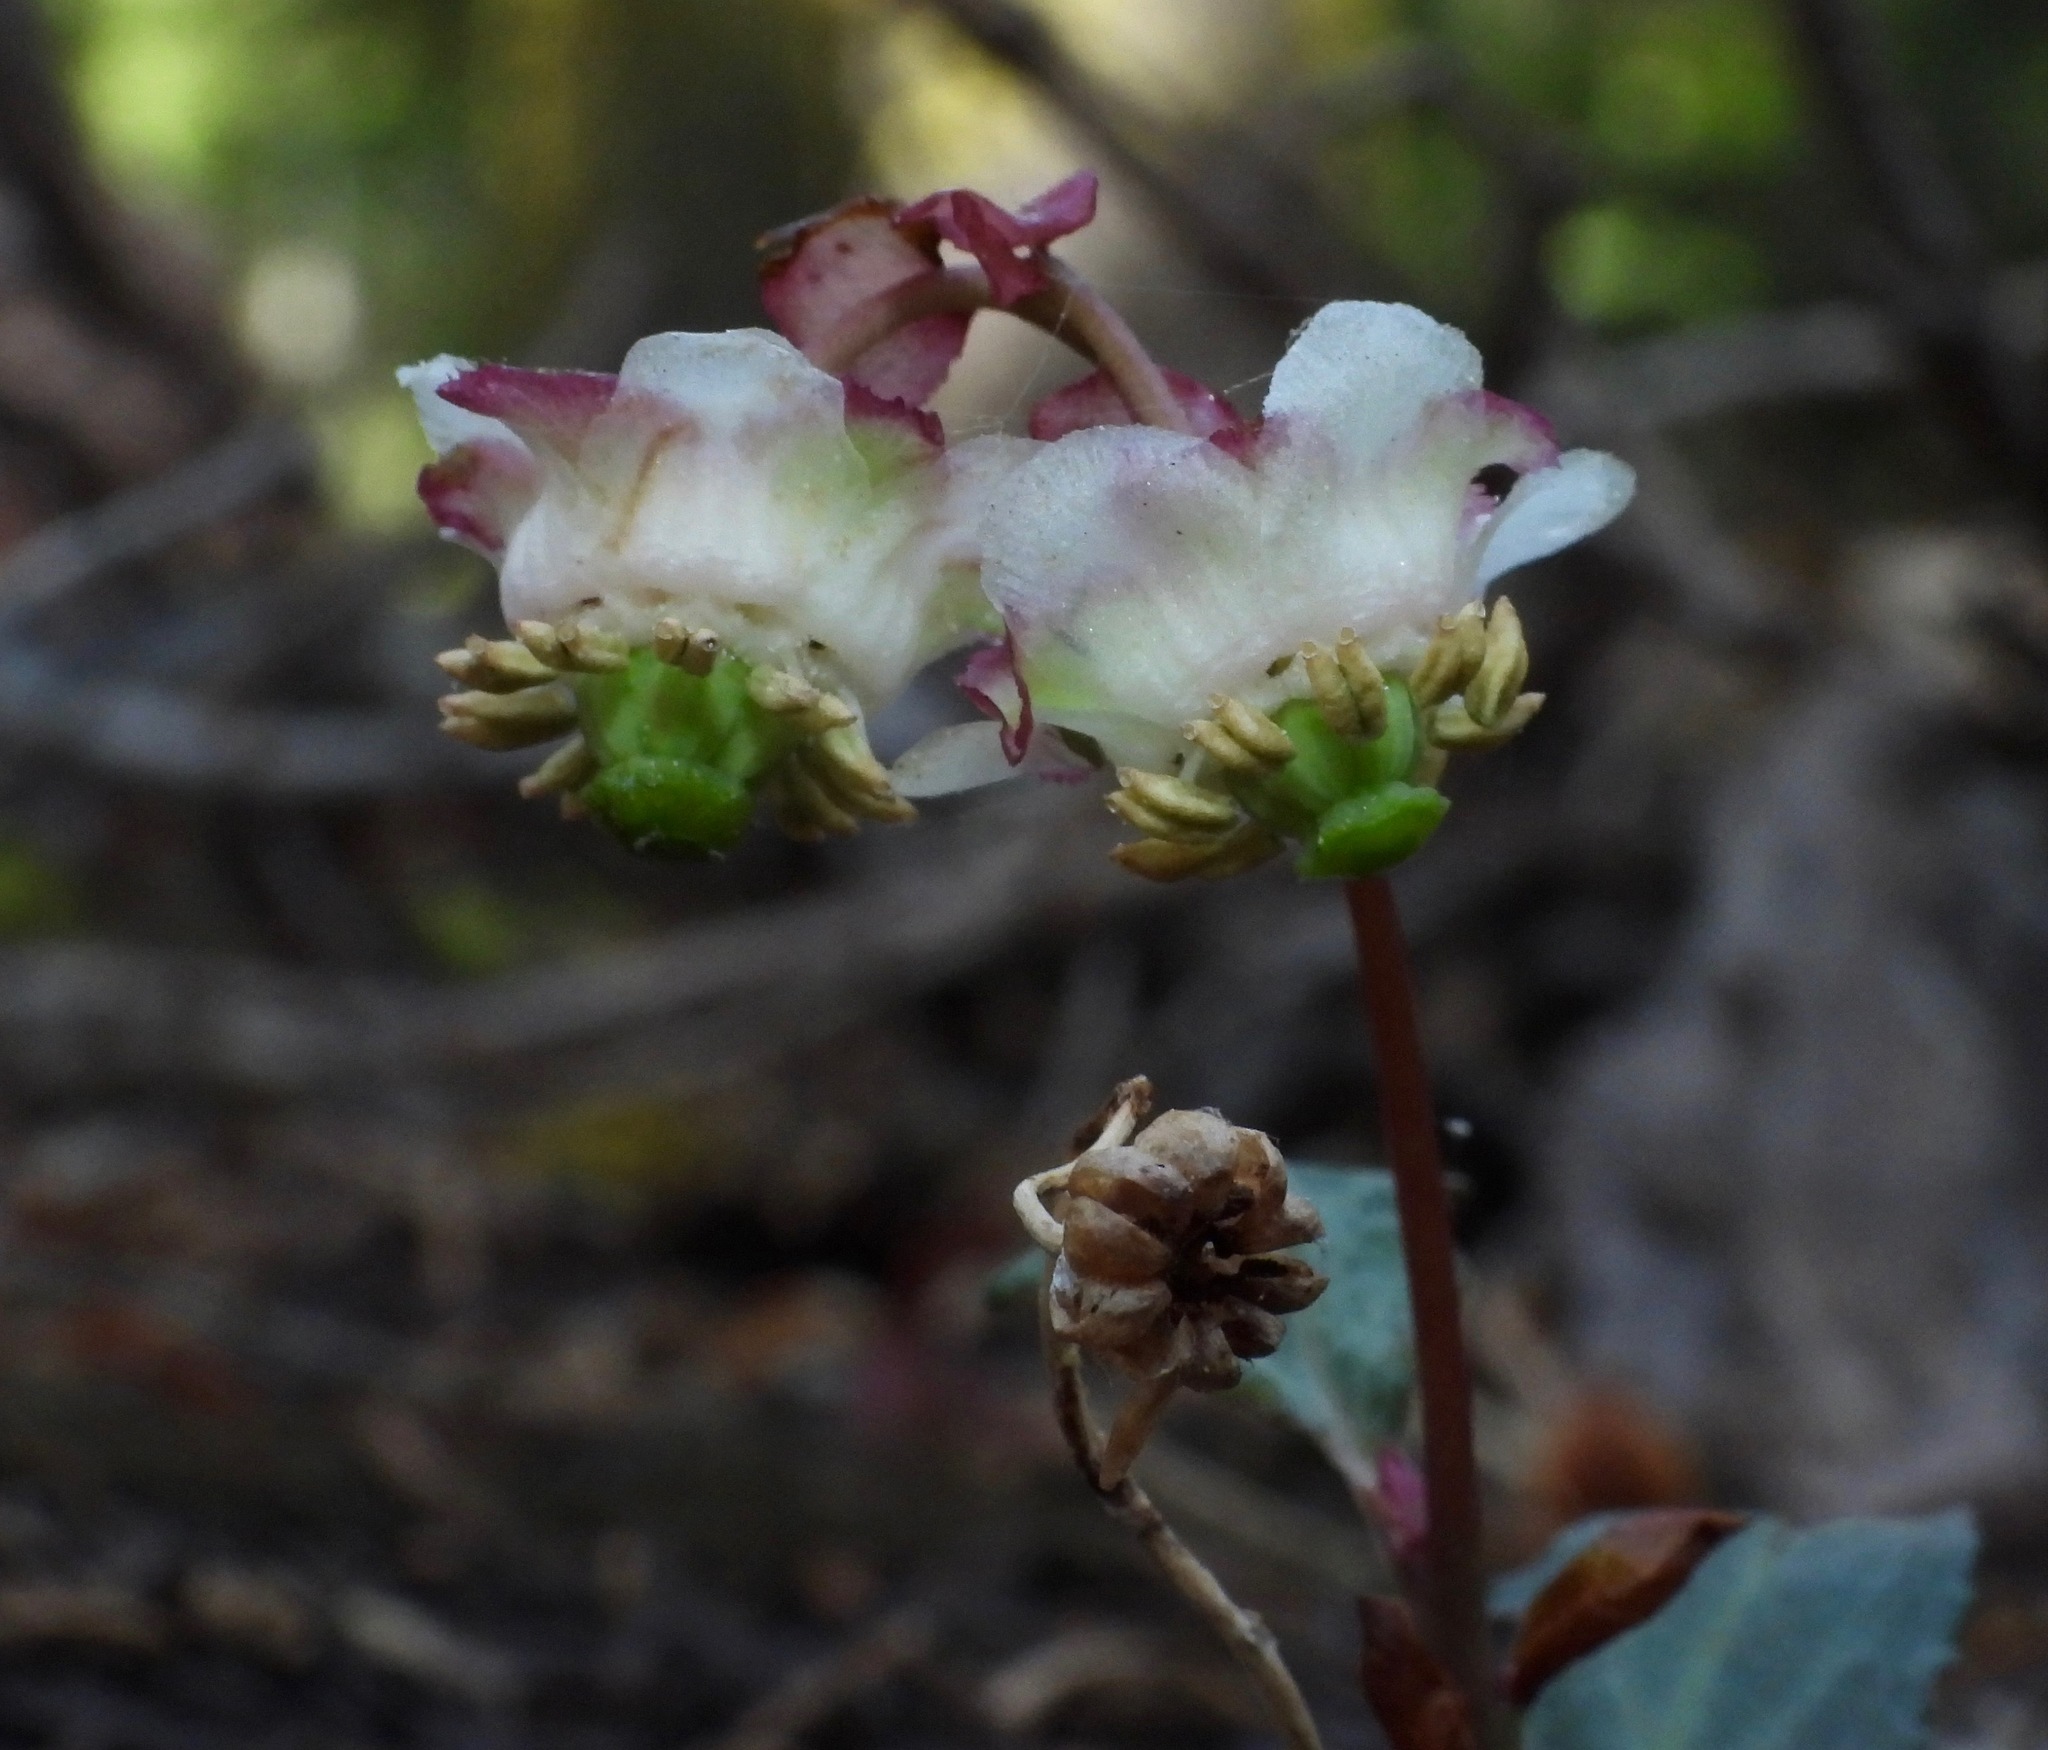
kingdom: Plantae
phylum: Tracheophyta
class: Magnoliopsida
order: Ericales
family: Ericaceae
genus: Chimaphila
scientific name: Chimaphila menziesii
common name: Menzies' pipsissewa
